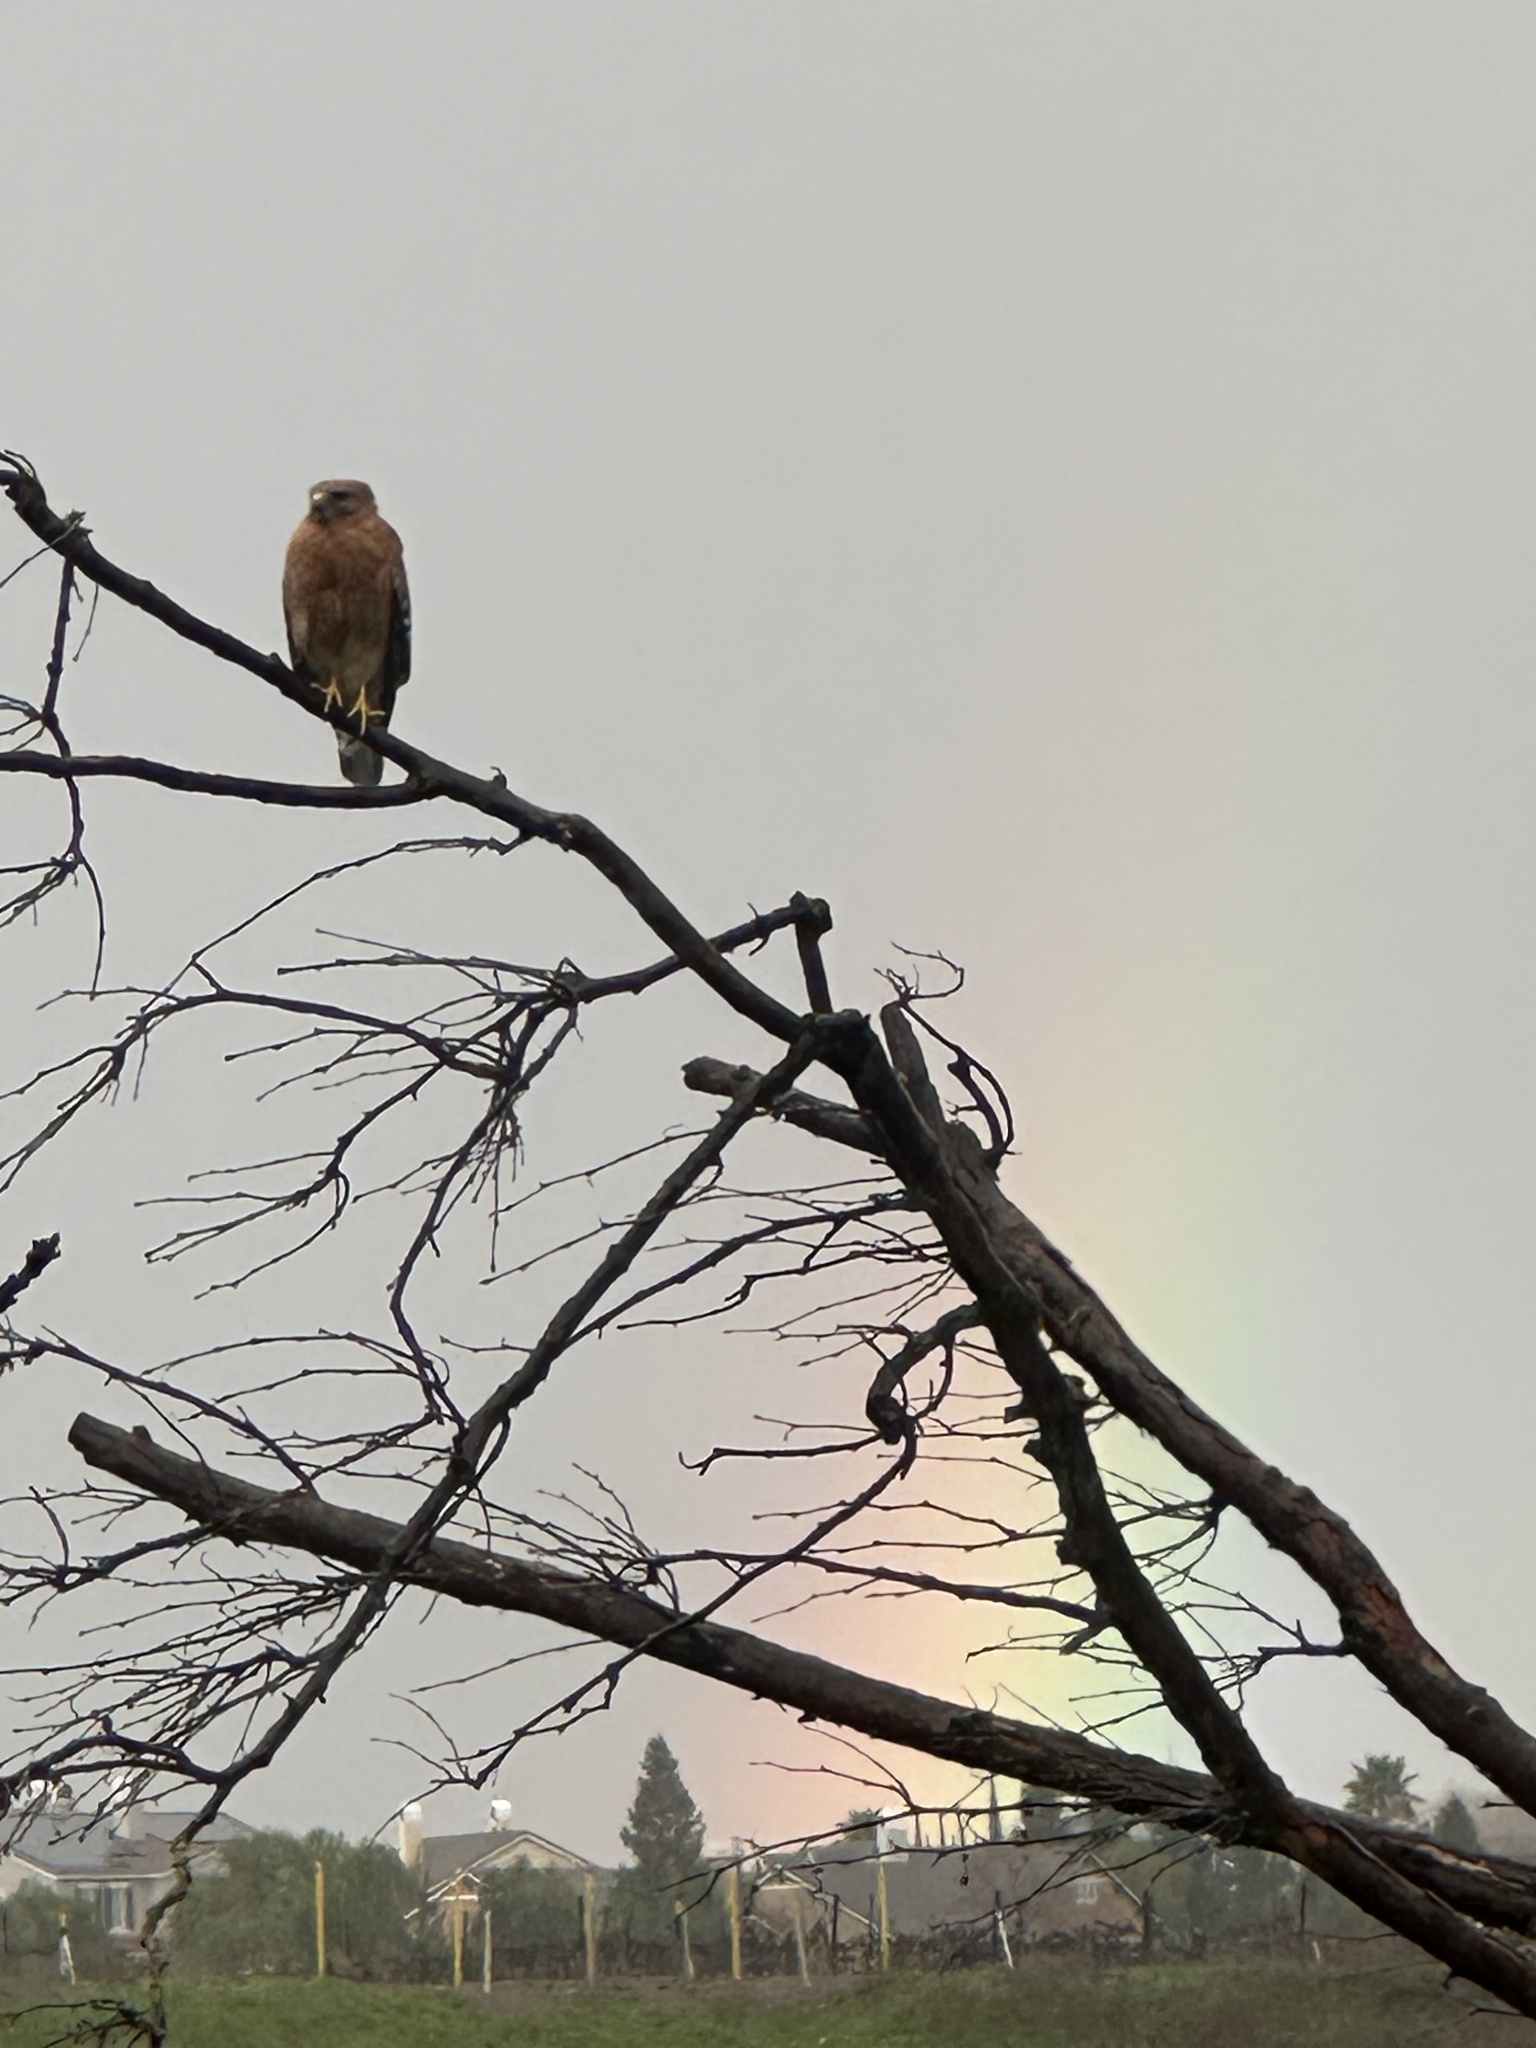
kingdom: Animalia
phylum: Chordata
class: Aves
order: Accipitriformes
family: Accipitridae
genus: Buteo
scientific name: Buteo lineatus
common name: Red-shouldered hawk
